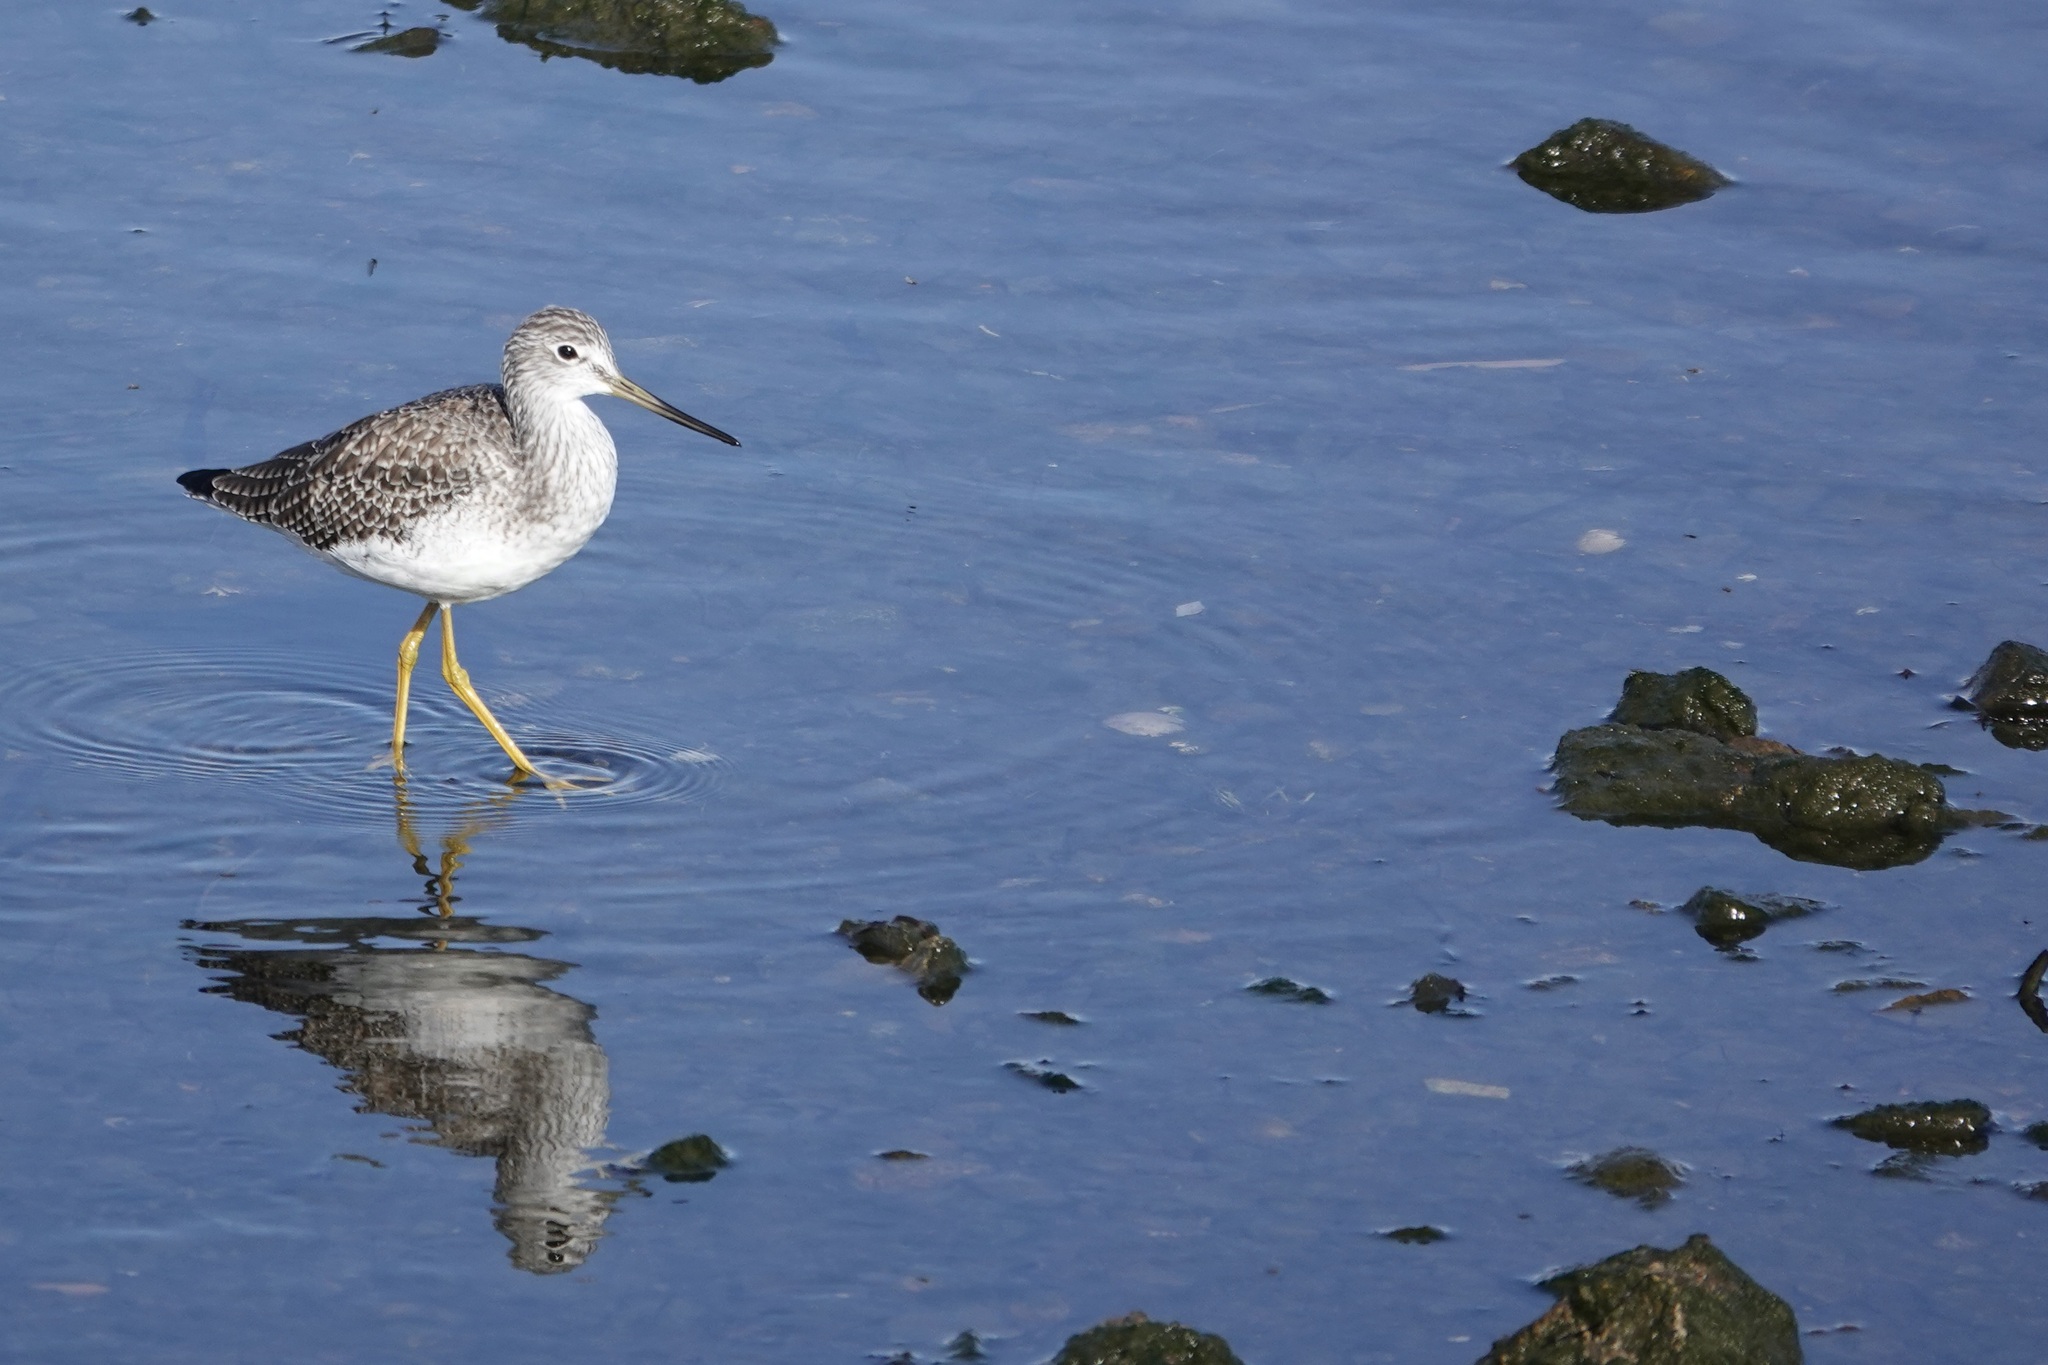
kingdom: Animalia
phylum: Chordata
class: Aves
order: Charadriiformes
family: Scolopacidae
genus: Tringa
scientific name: Tringa melanoleuca
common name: Greater yellowlegs
